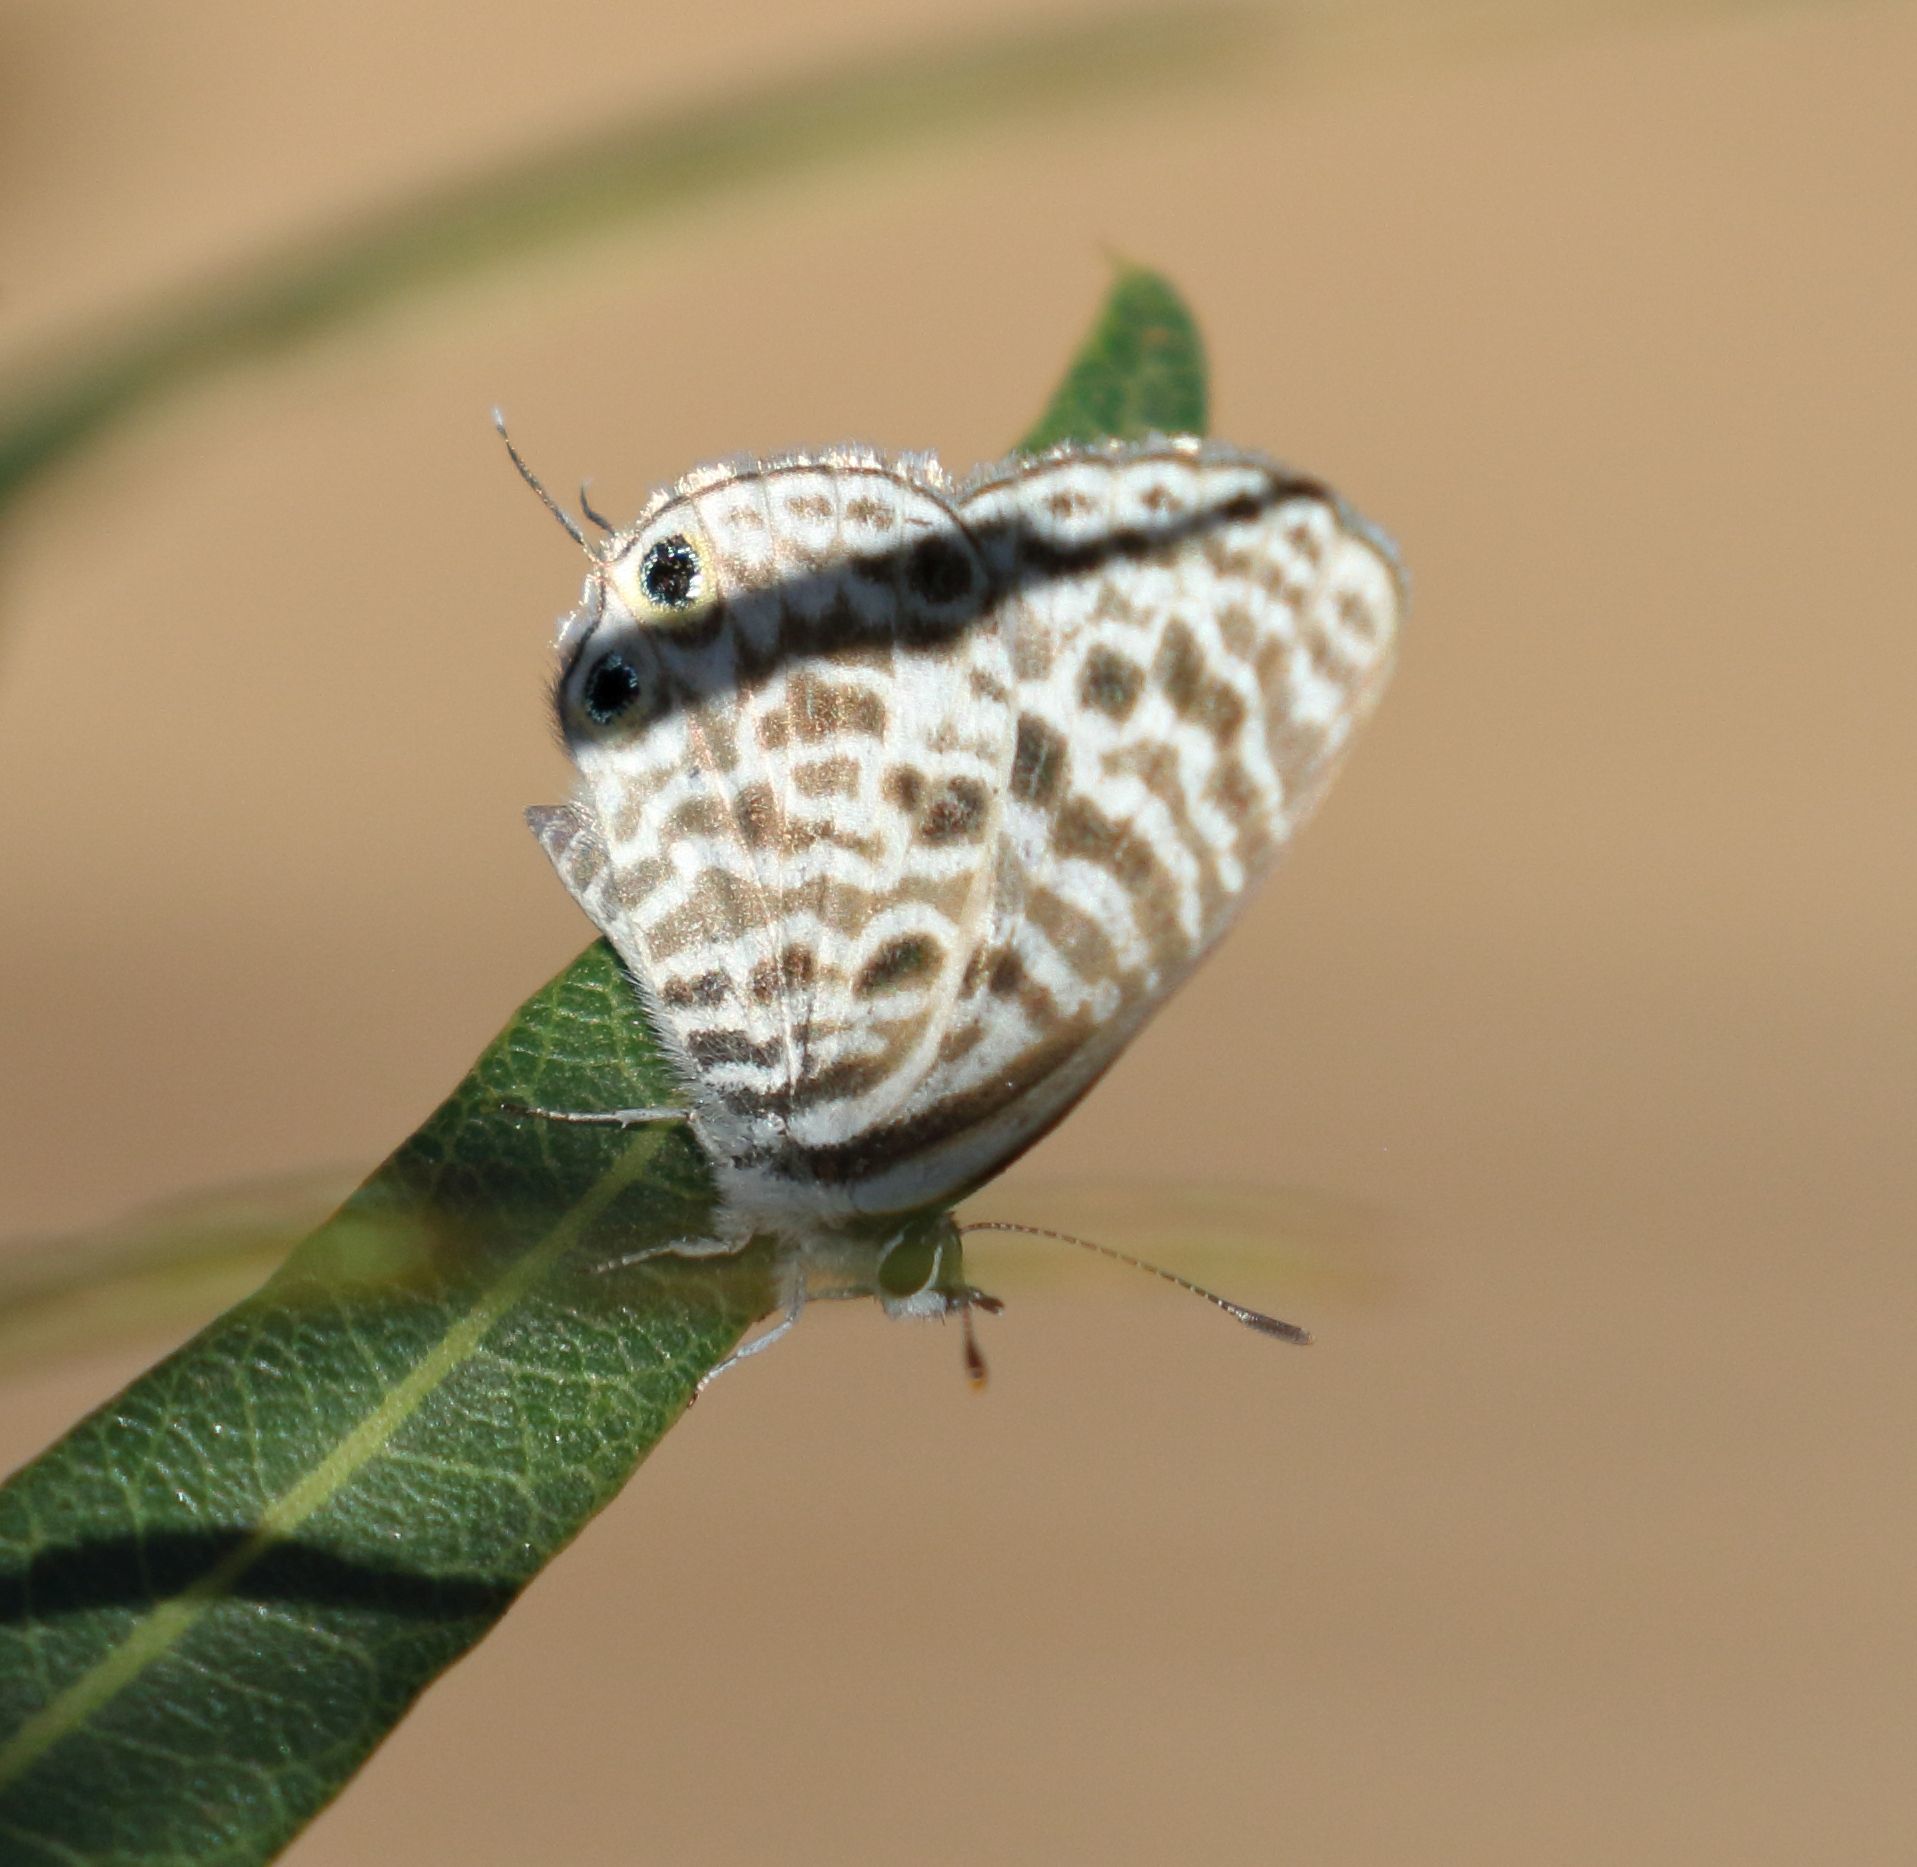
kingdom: Animalia
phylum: Arthropoda
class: Insecta
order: Lepidoptera
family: Lycaenidae
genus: Leptotes
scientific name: Leptotes
